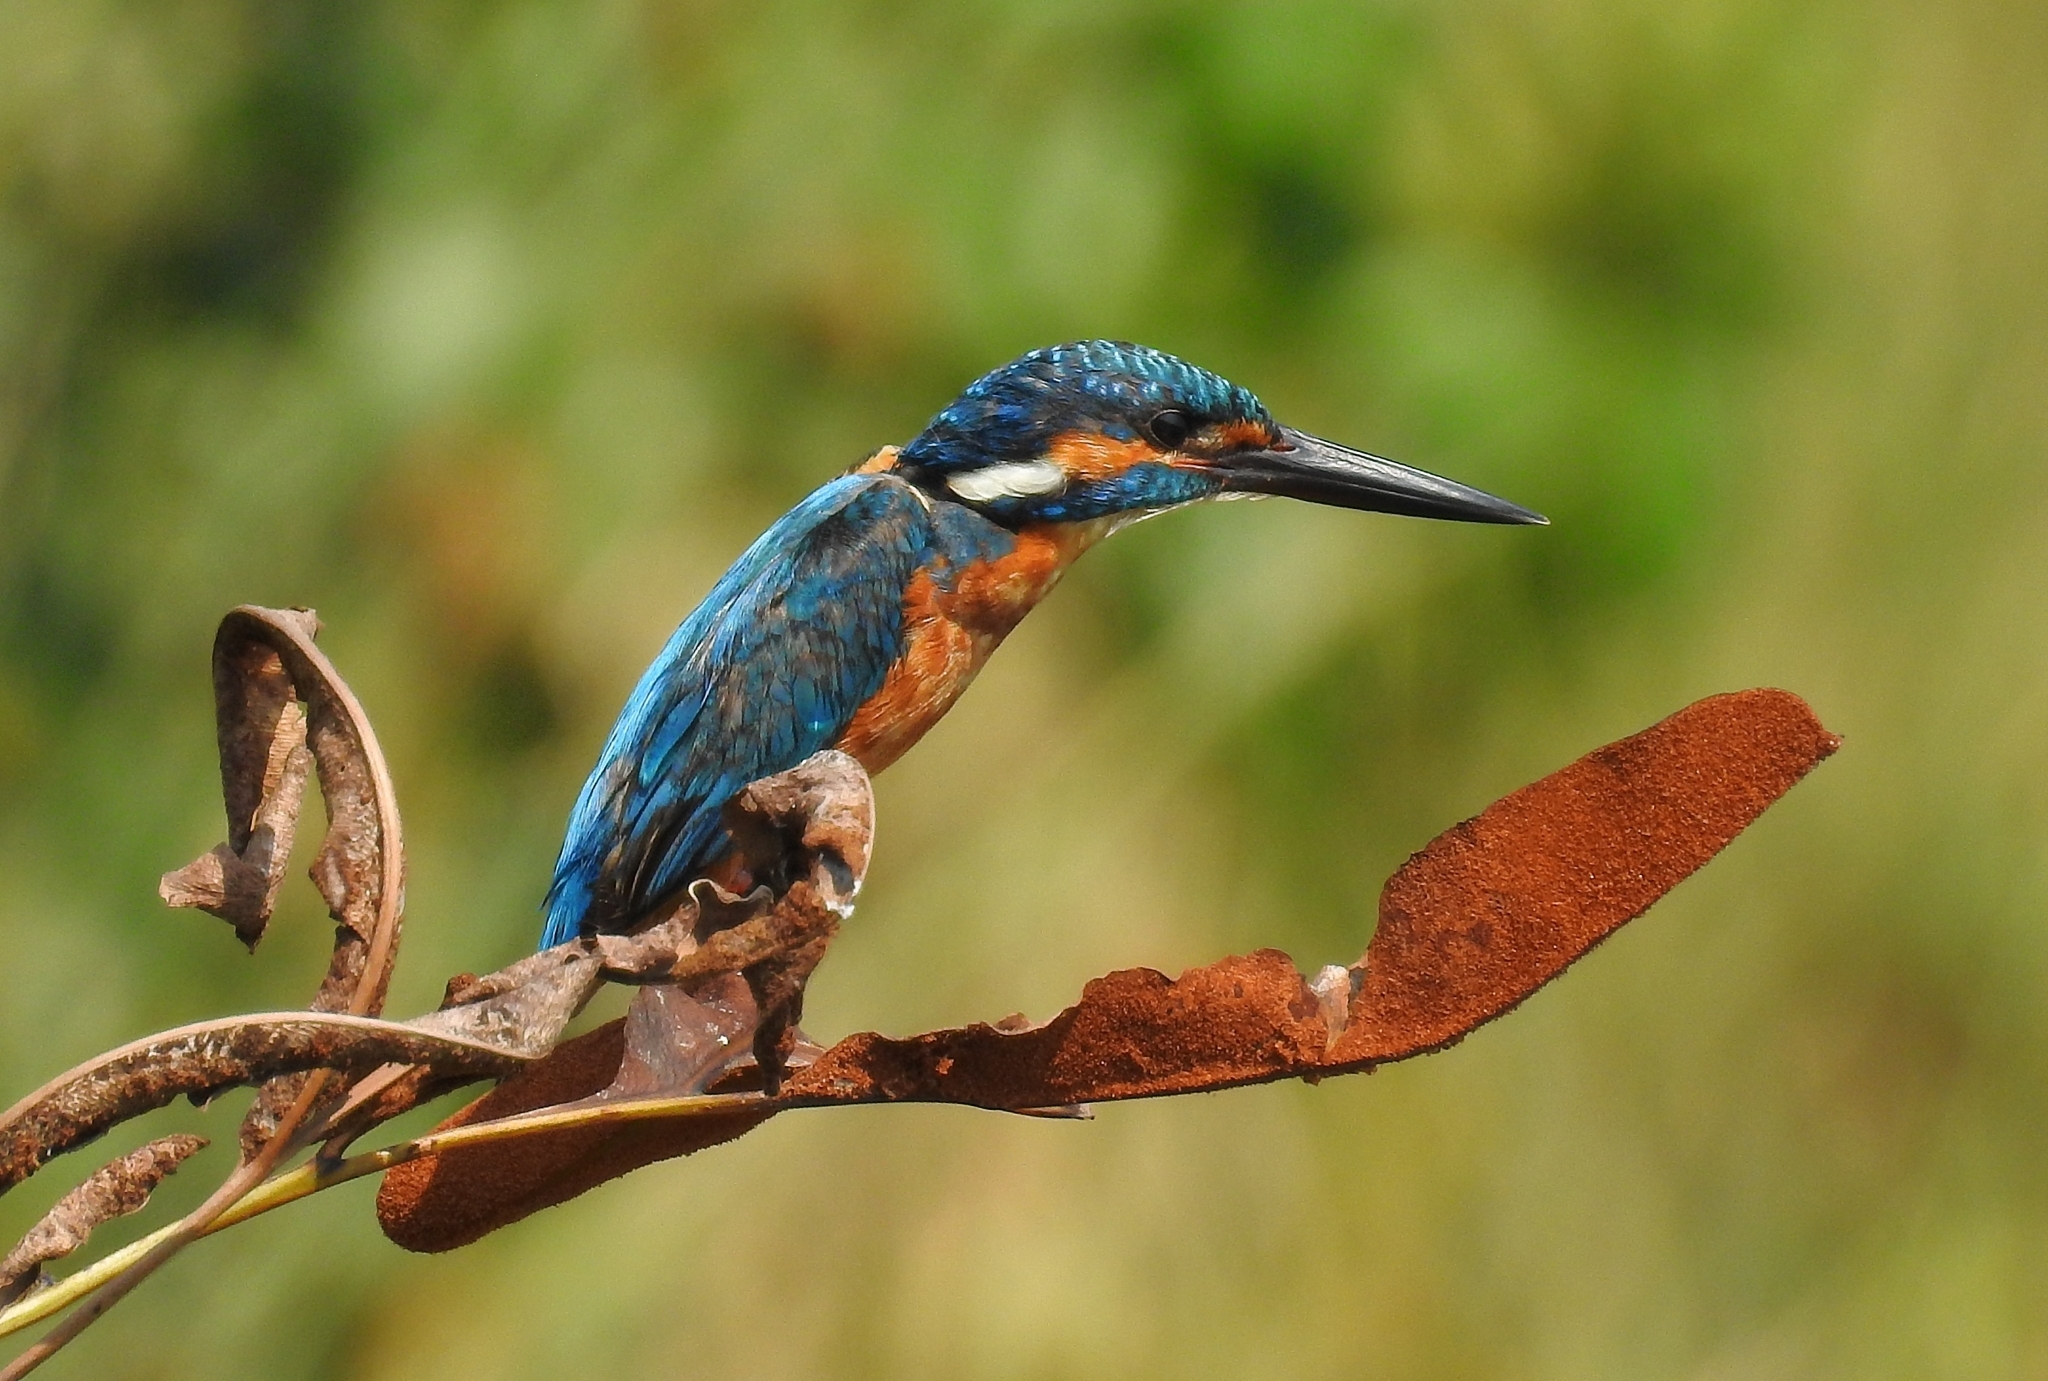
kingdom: Animalia
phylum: Chordata
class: Aves
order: Coraciiformes
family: Alcedinidae
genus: Alcedo
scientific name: Alcedo atthis
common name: Common kingfisher
